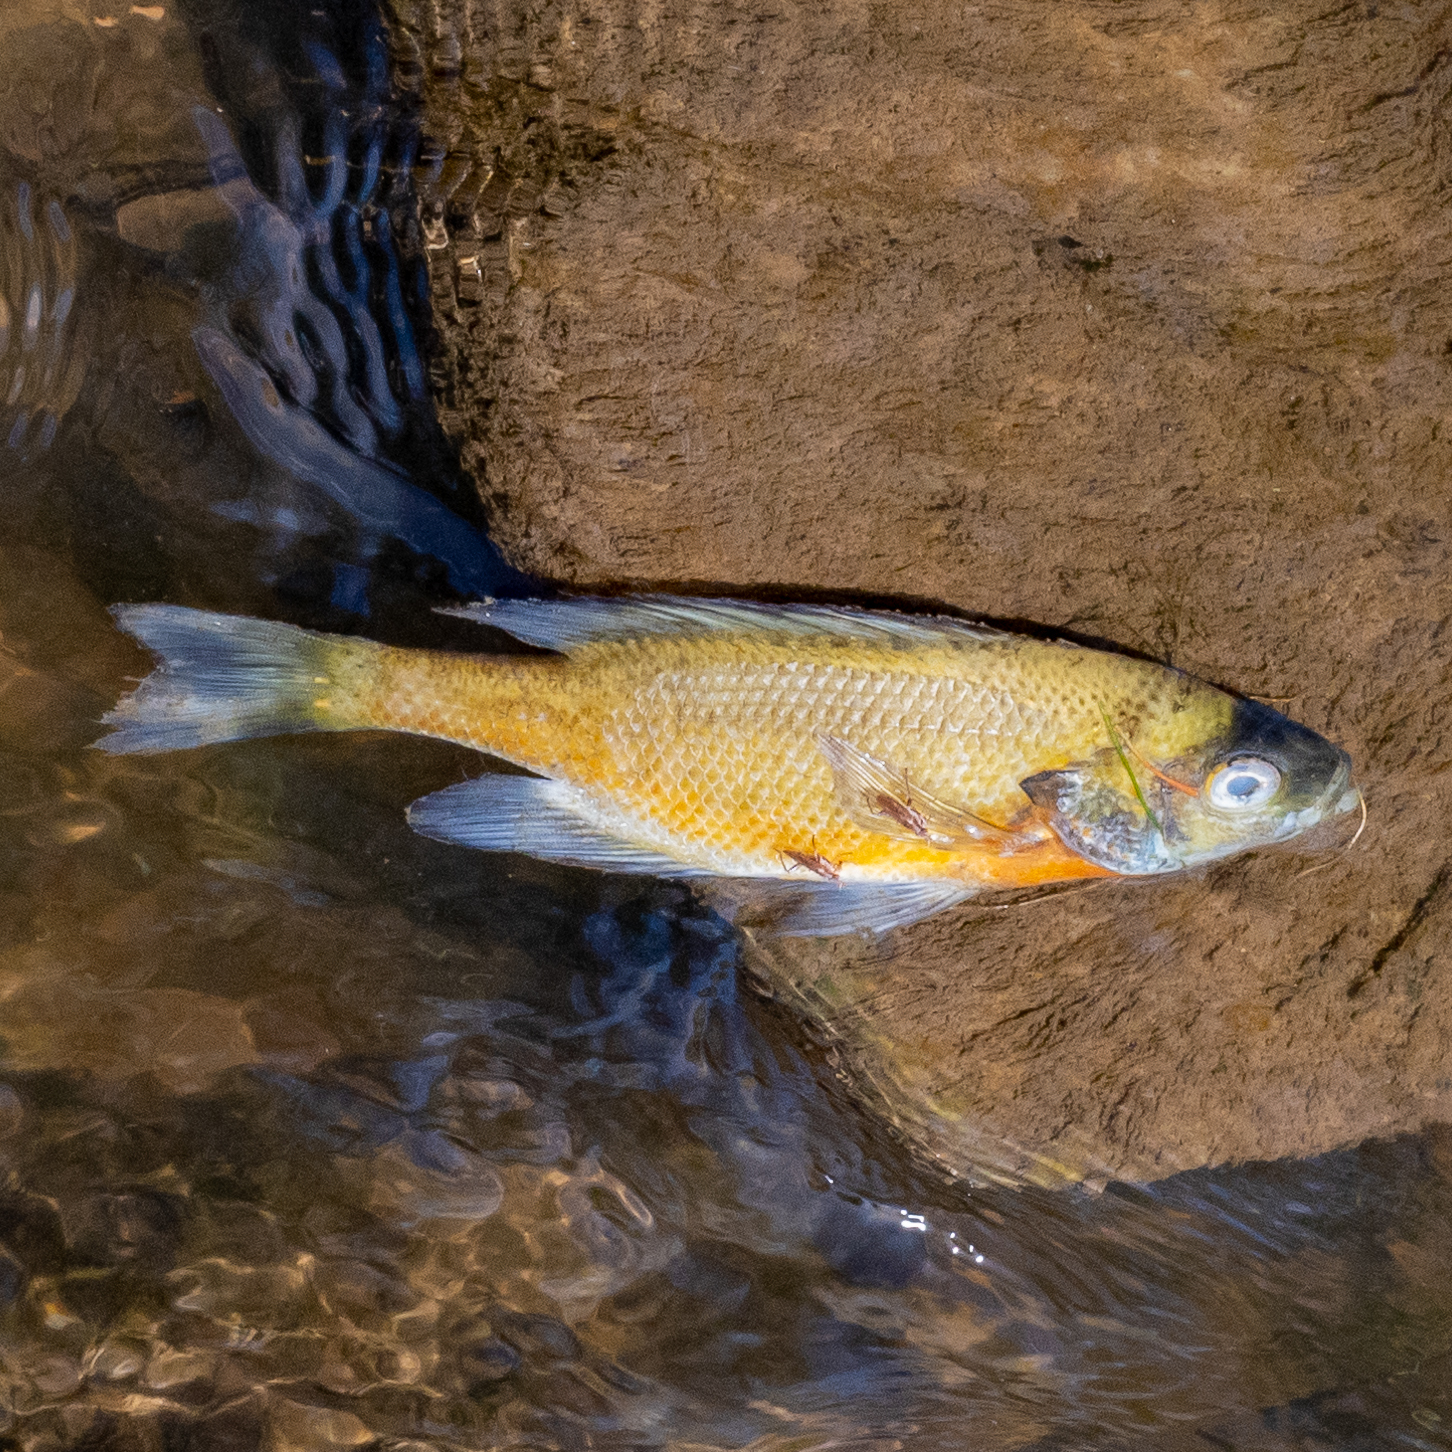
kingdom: Animalia
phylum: Chordata
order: Perciformes
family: Centrarchidae
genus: Lepomis
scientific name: Lepomis macrochirus
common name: Bluegill
